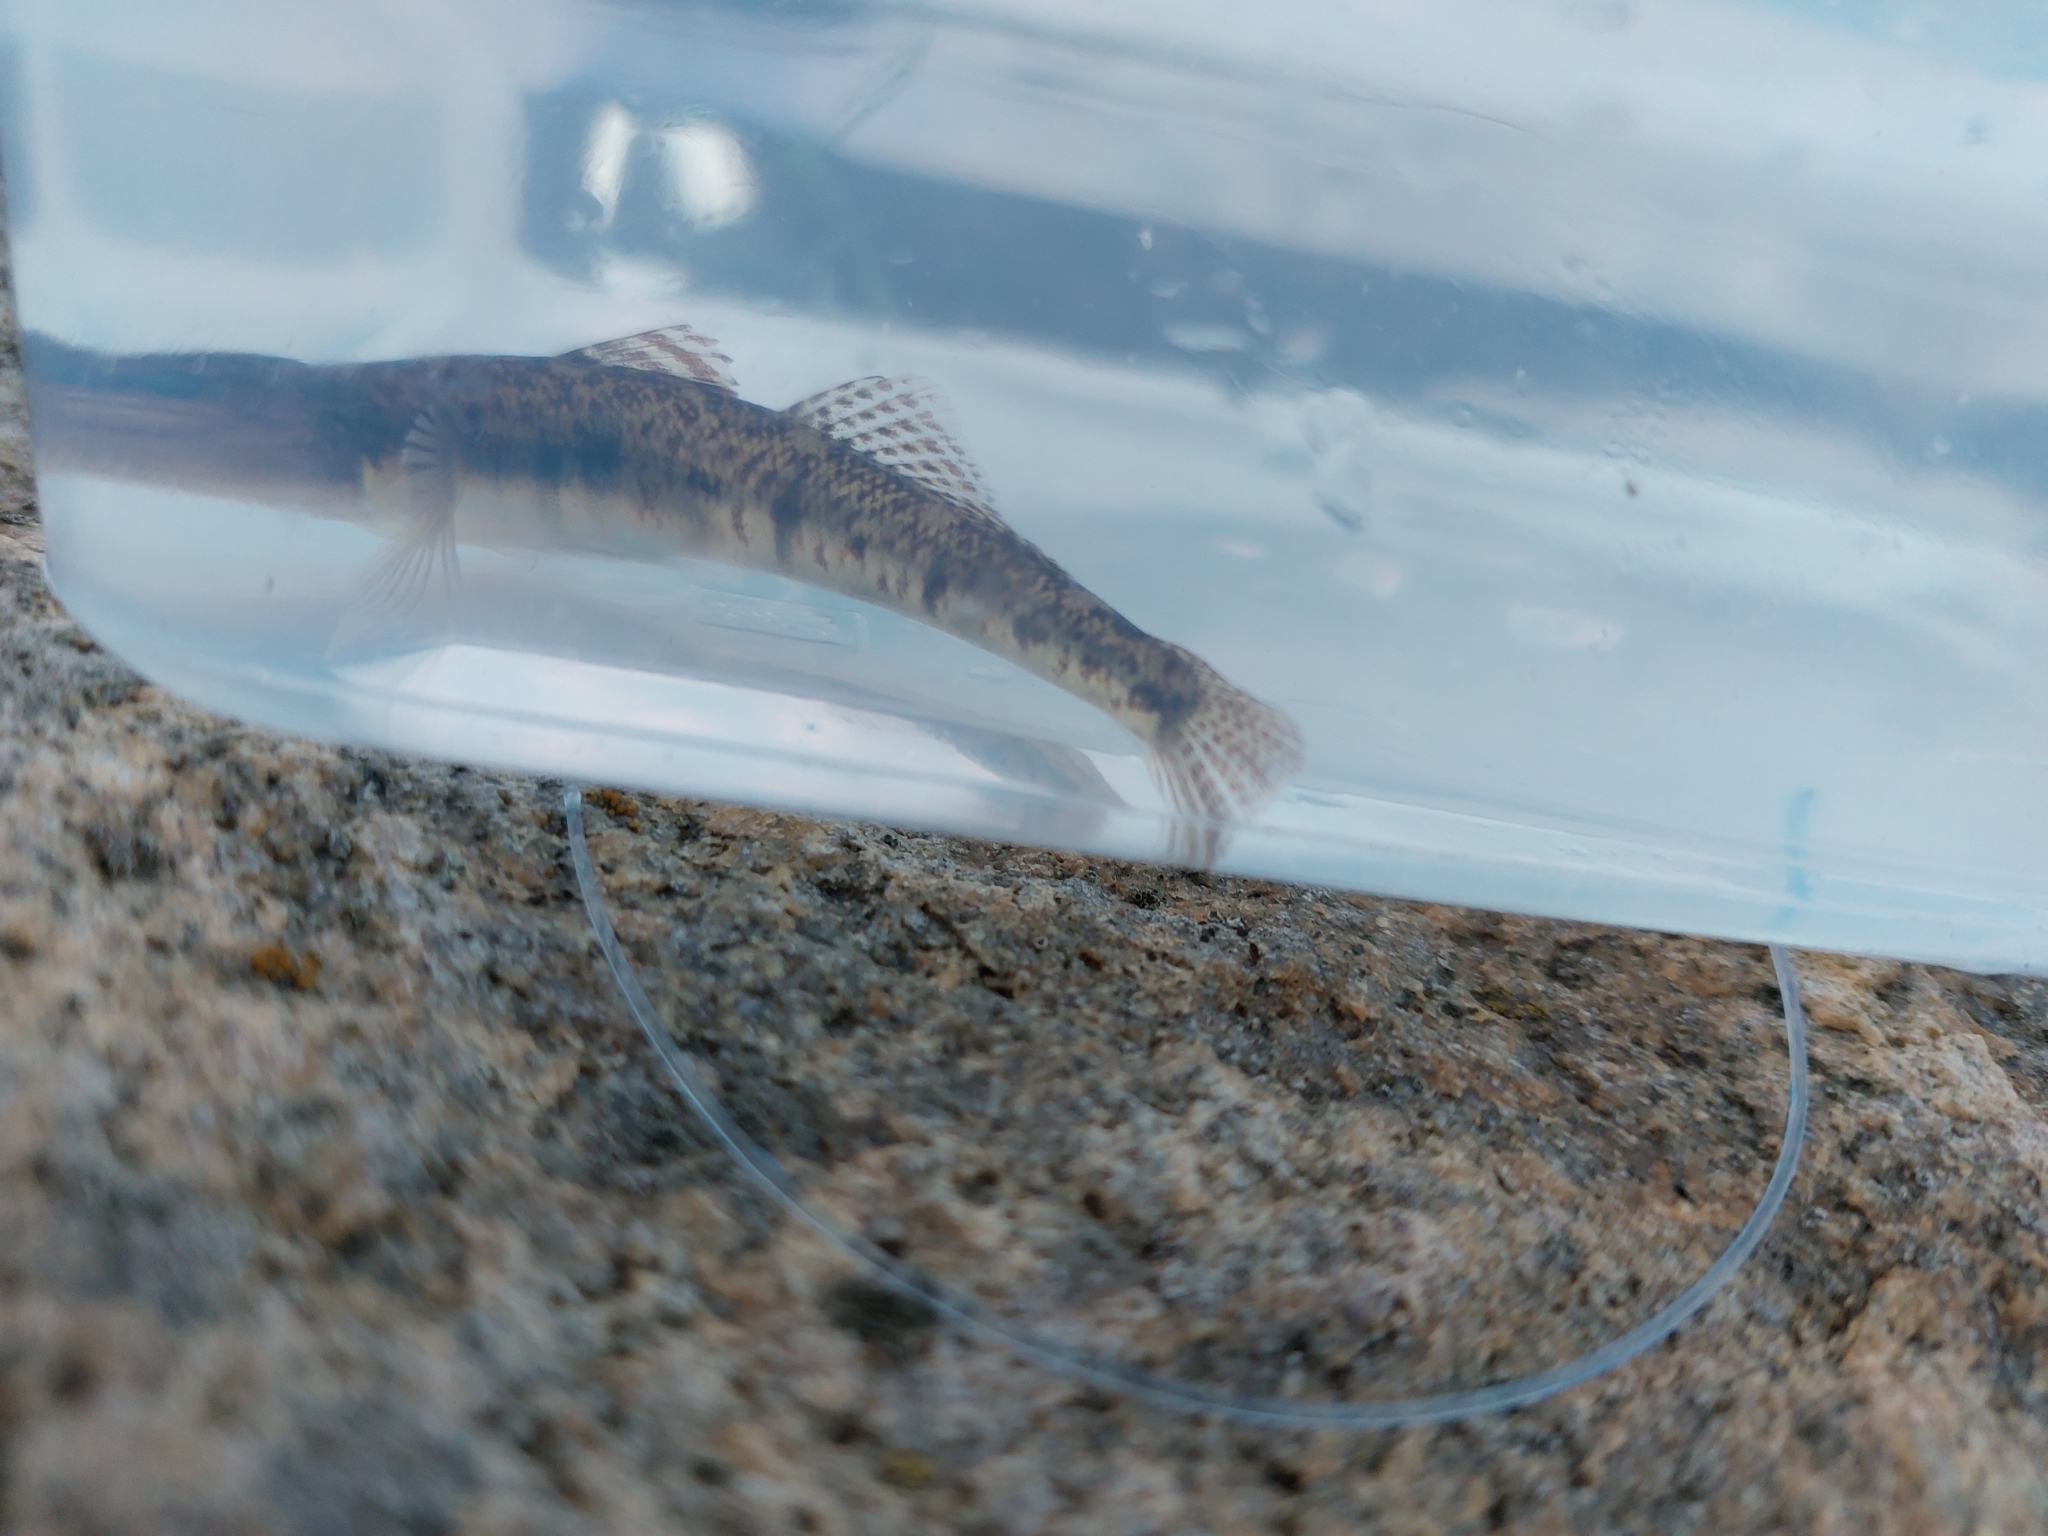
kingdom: Animalia
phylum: Chordata
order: Perciformes
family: Gobiidae
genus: Pomatoschistus
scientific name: Pomatoschistus minutus
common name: Sand goby
